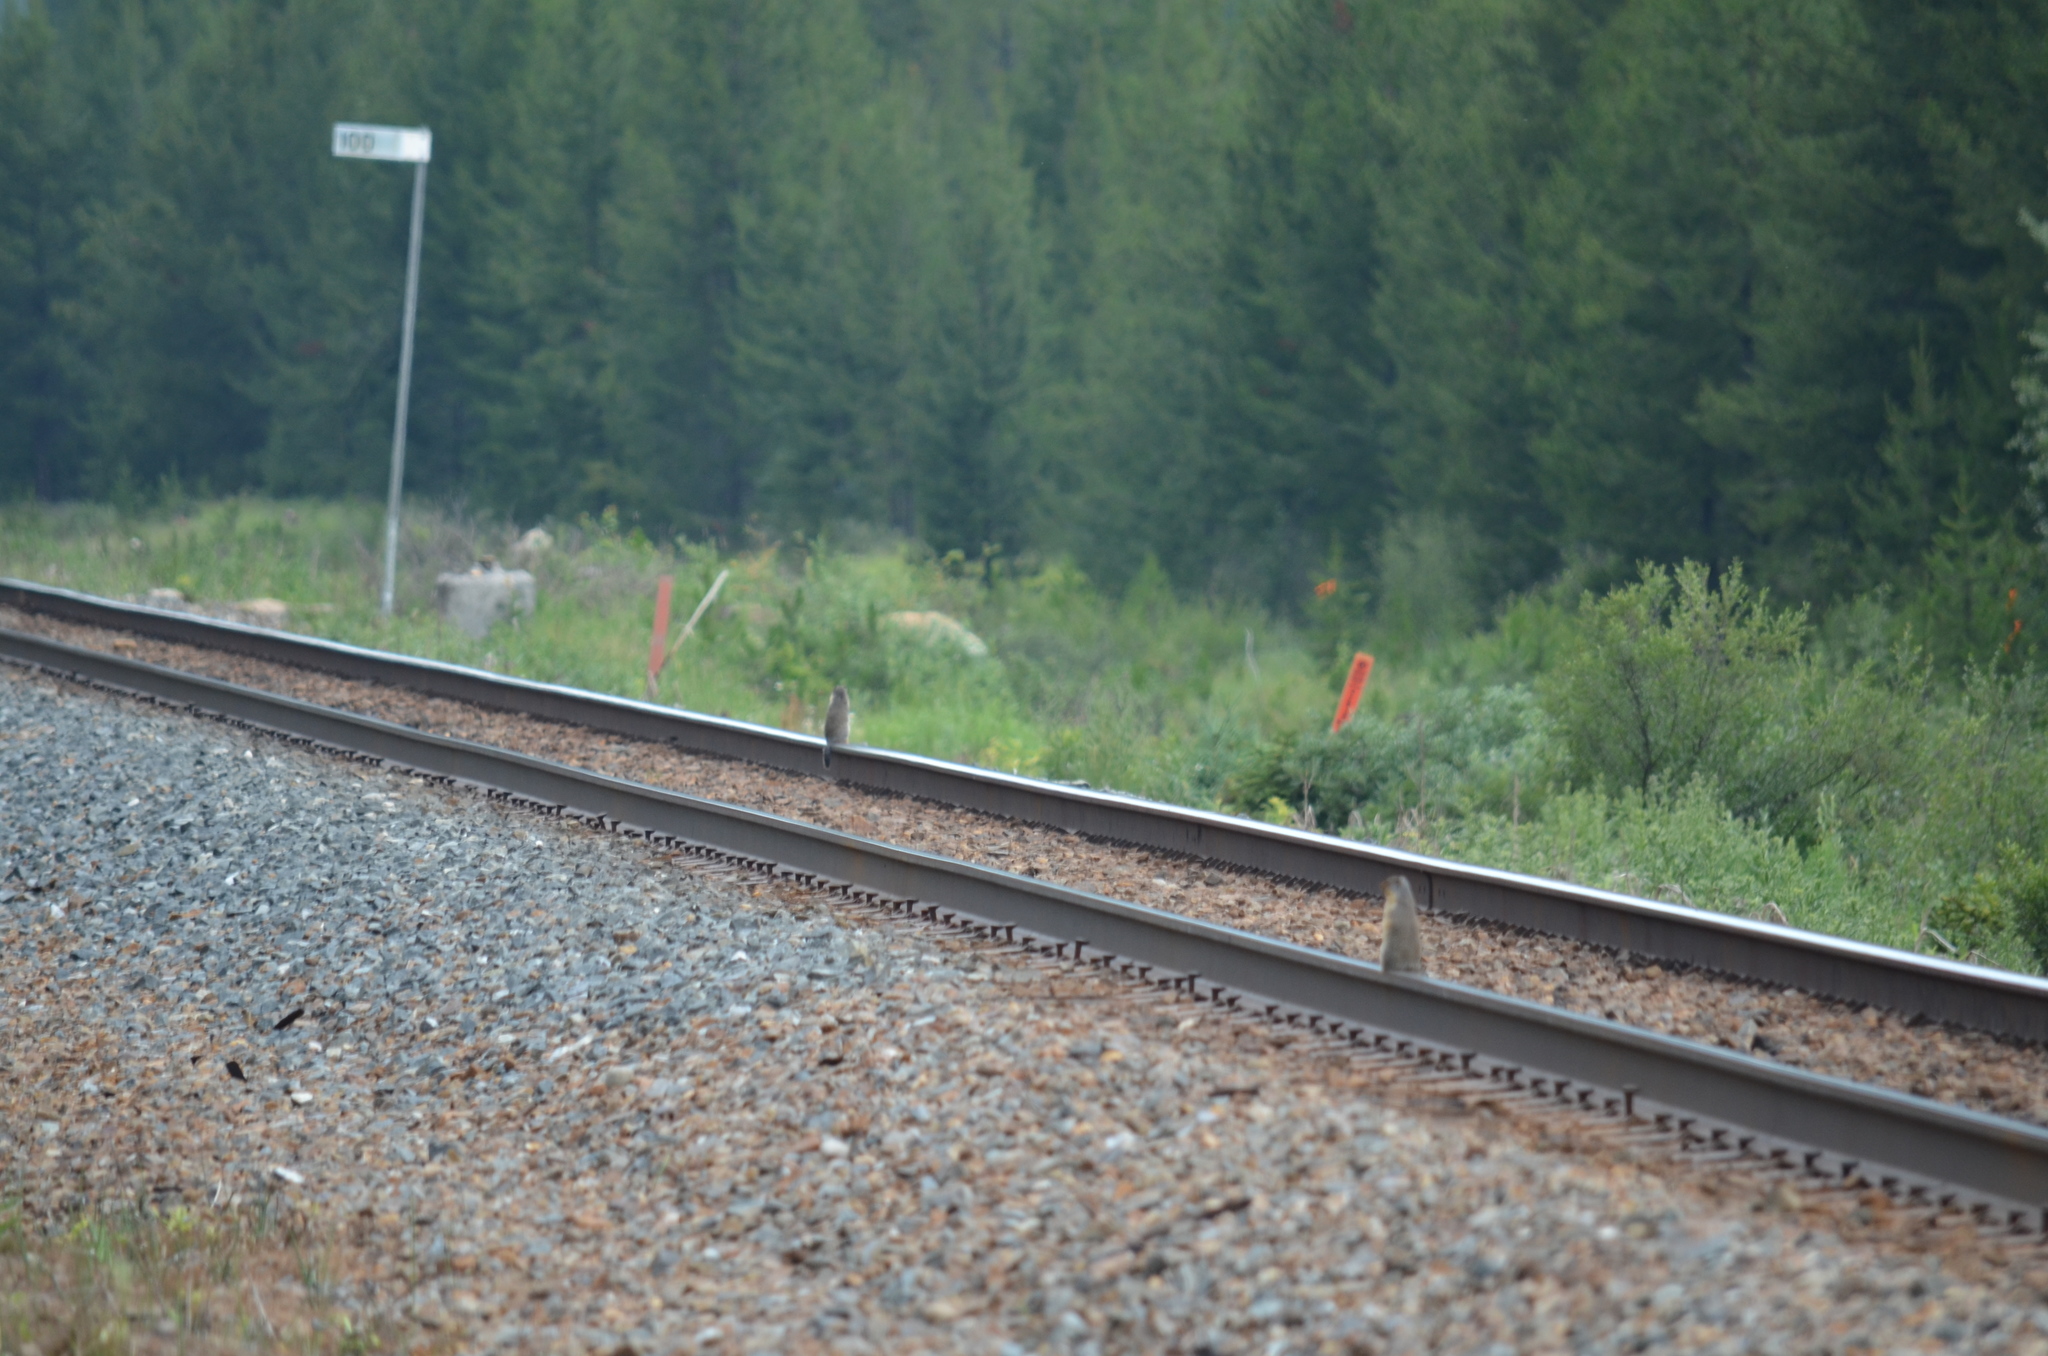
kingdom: Animalia
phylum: Chordata
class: Mammalia
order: Rodentia
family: Sciuridae
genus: Urocitellus
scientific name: Urocitellus columbianus
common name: Columbian ground squirrel
